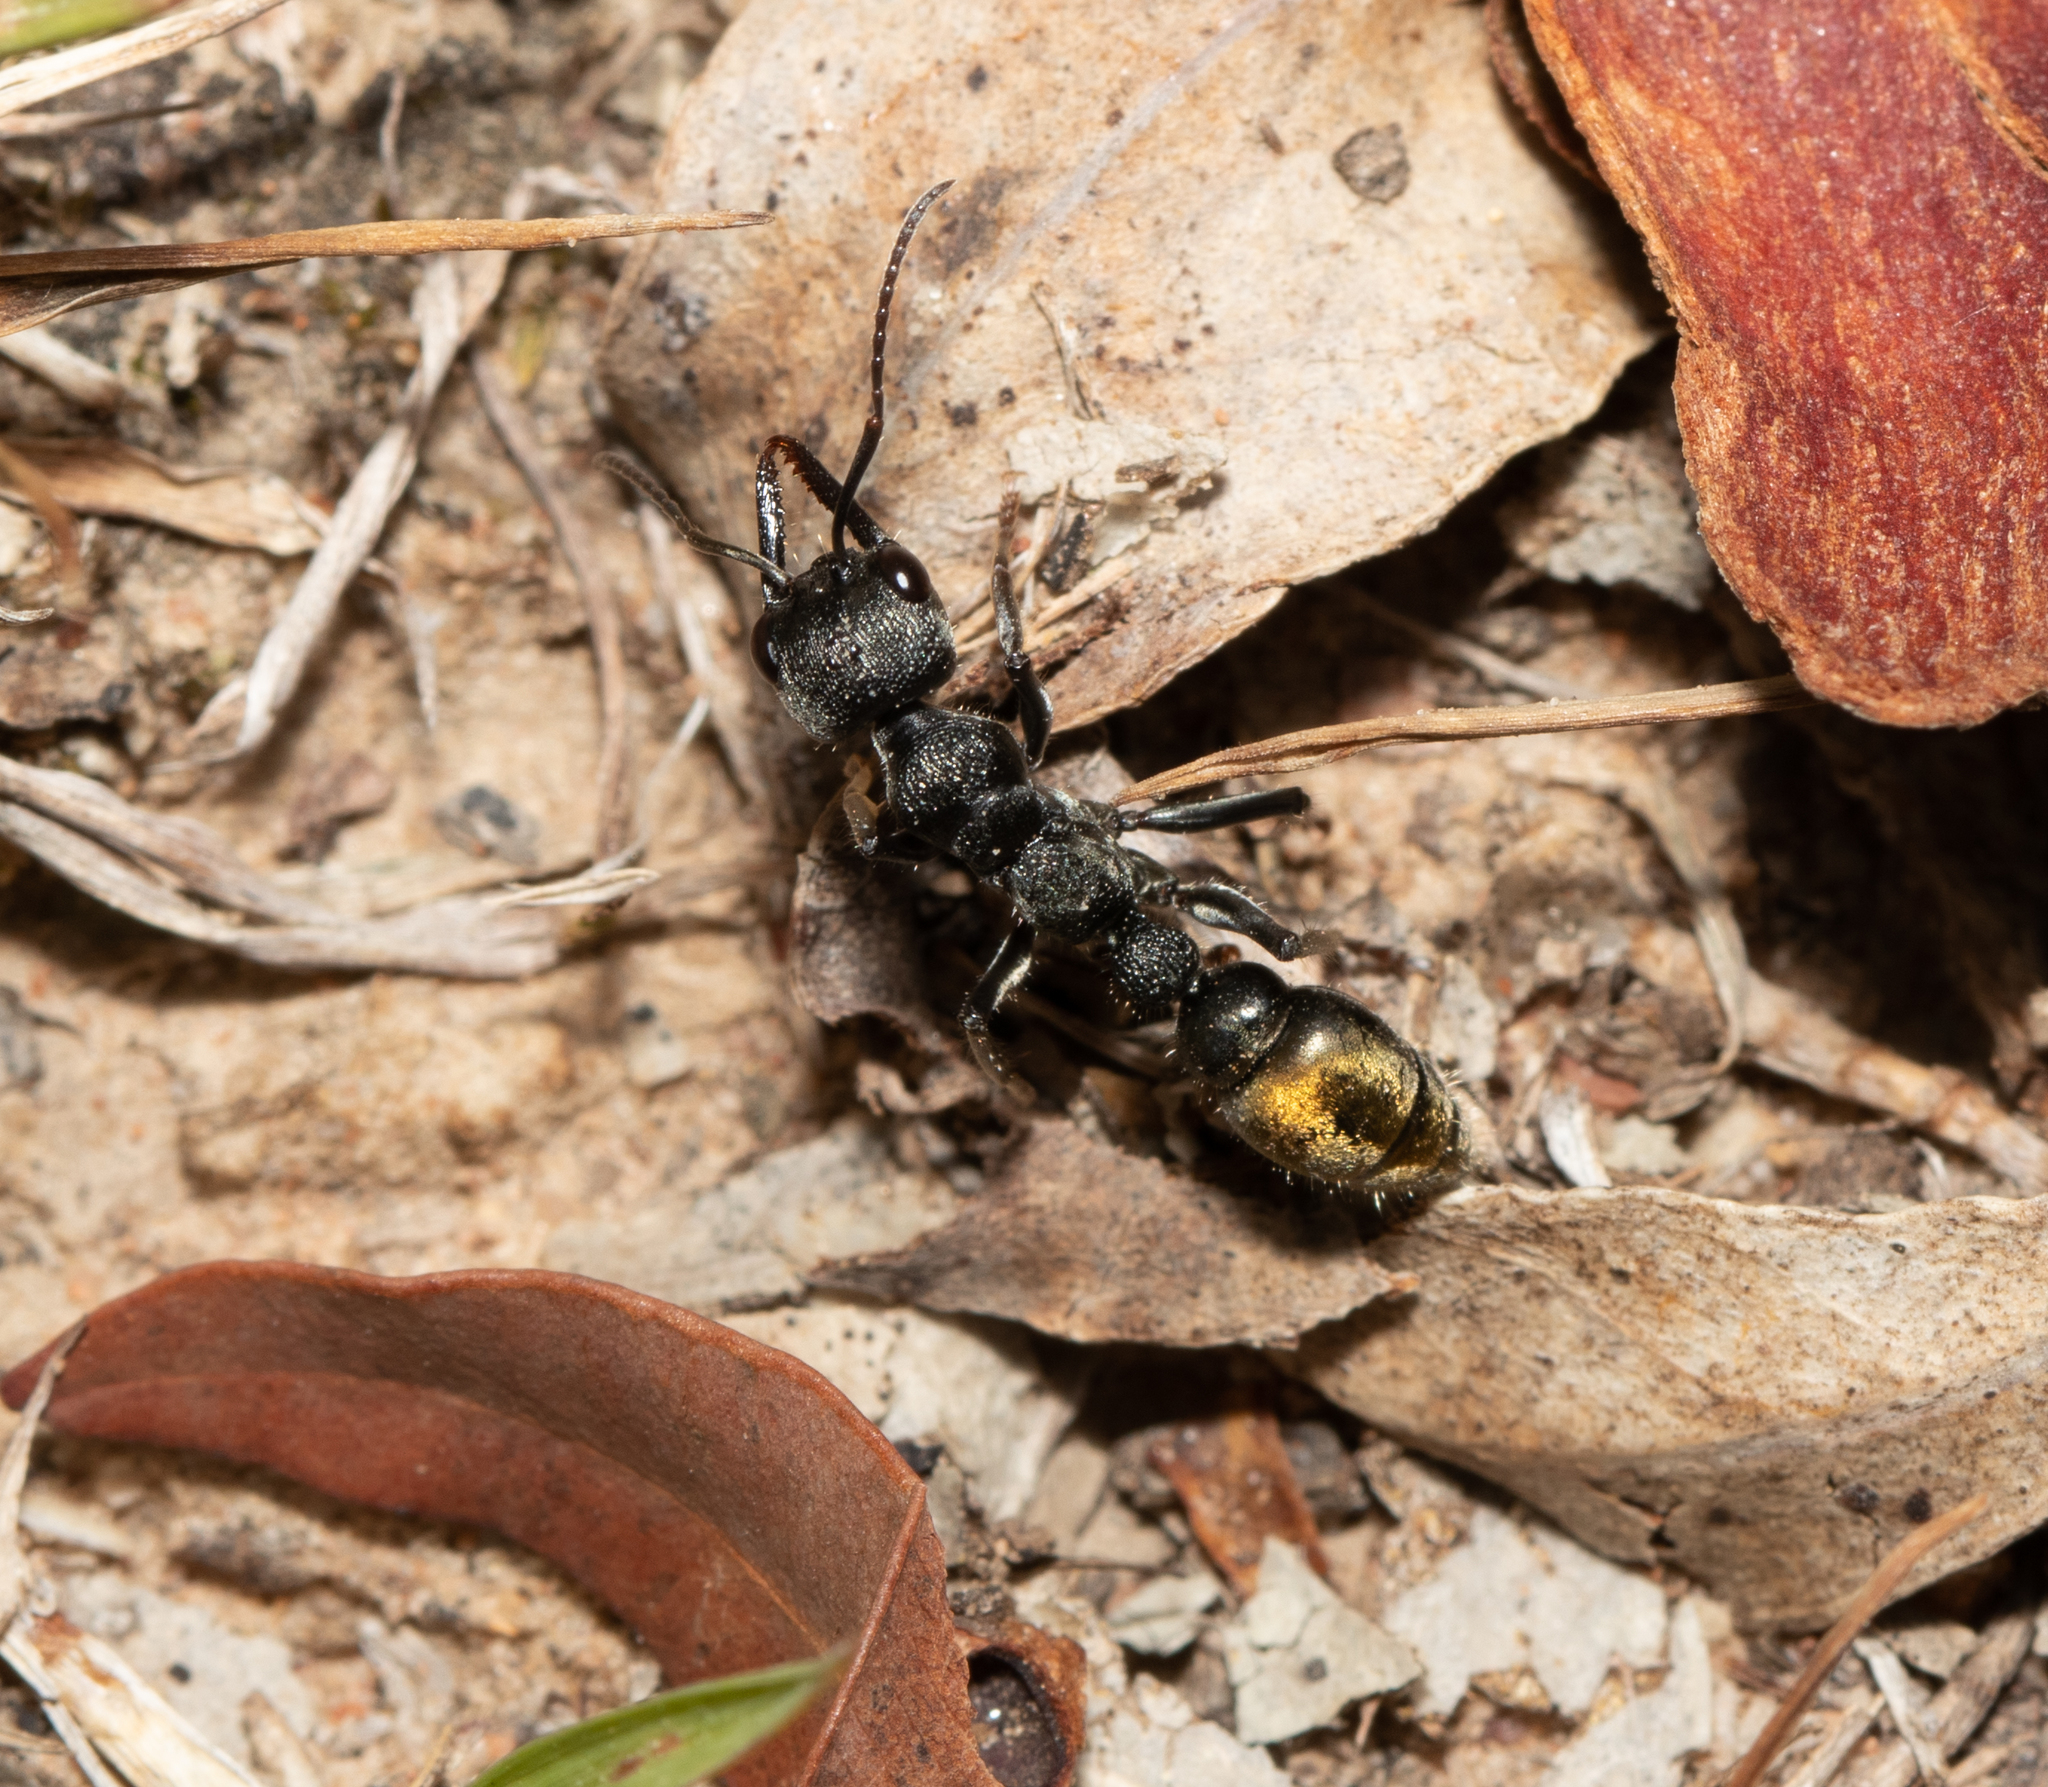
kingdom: Animalia
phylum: Arthropoda
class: Insecta
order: Hymenoptera
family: Formicidae
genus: Myrmecia
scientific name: Myrmecia gilberti
